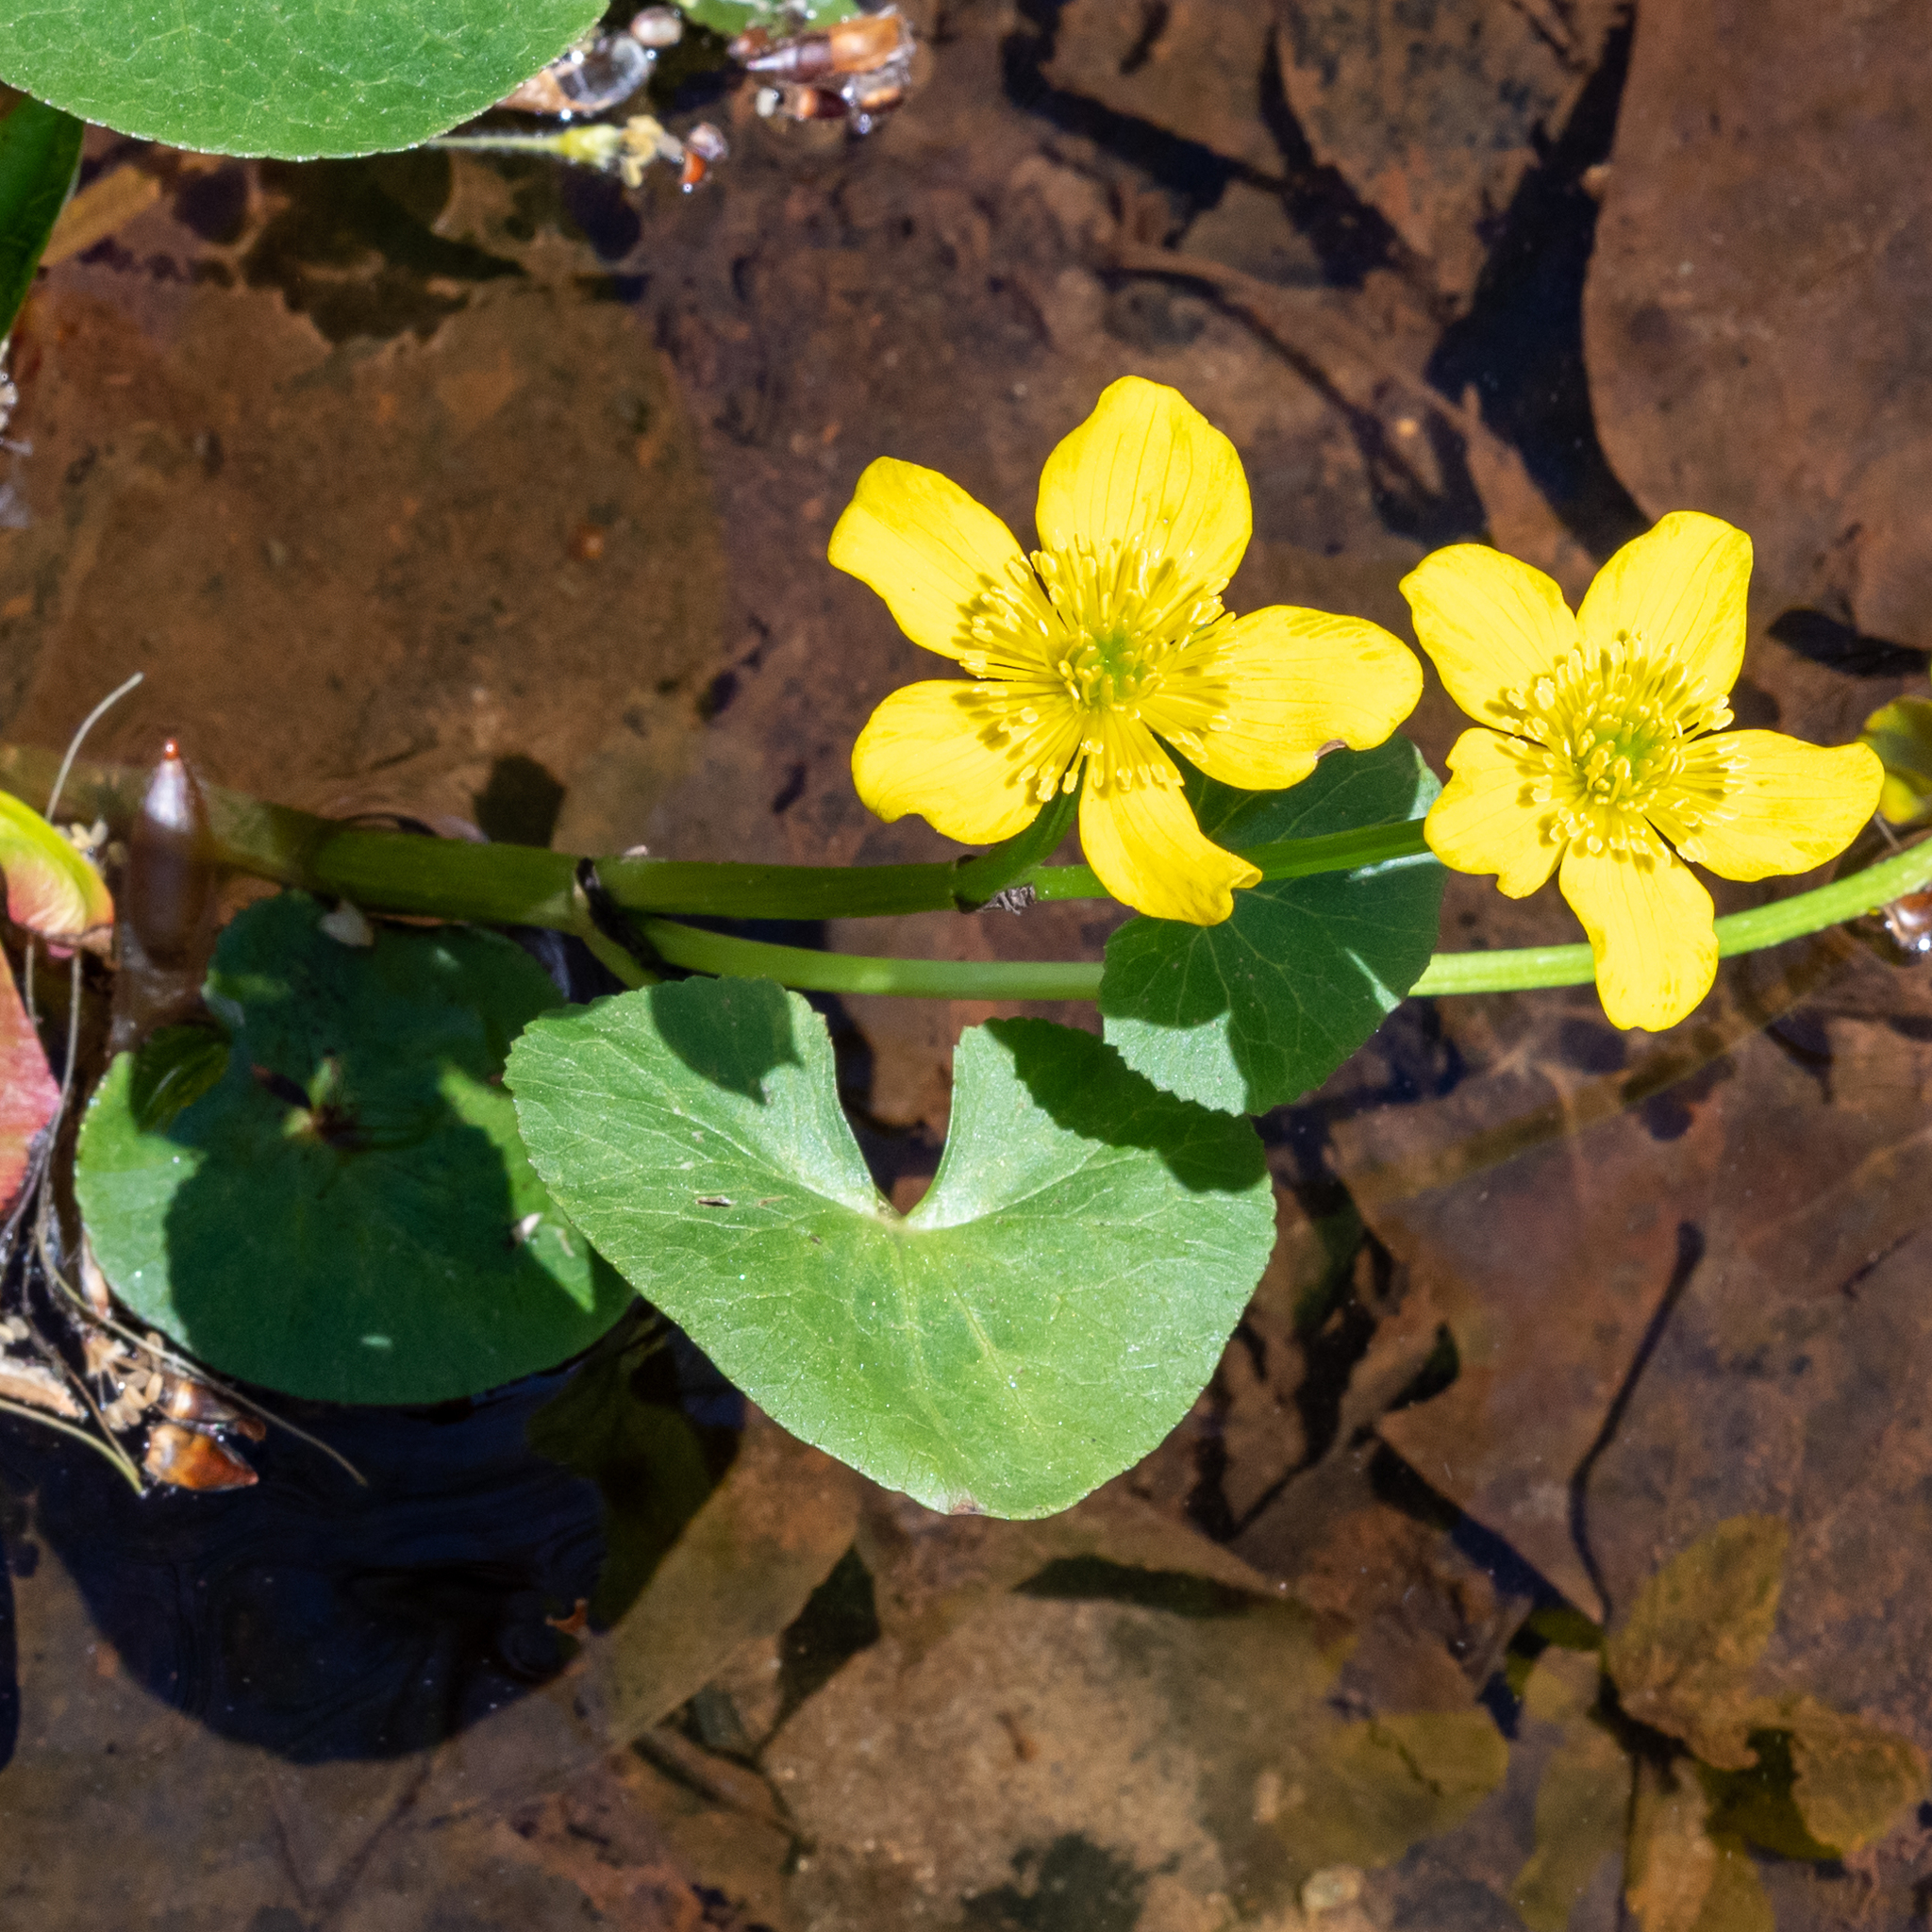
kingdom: Plantae
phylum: Tracheophyta
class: Magnoliopsida
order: Ranunculales
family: Ranunculaceae
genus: Caltha
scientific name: Caltha palustris
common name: Marsh marigold
